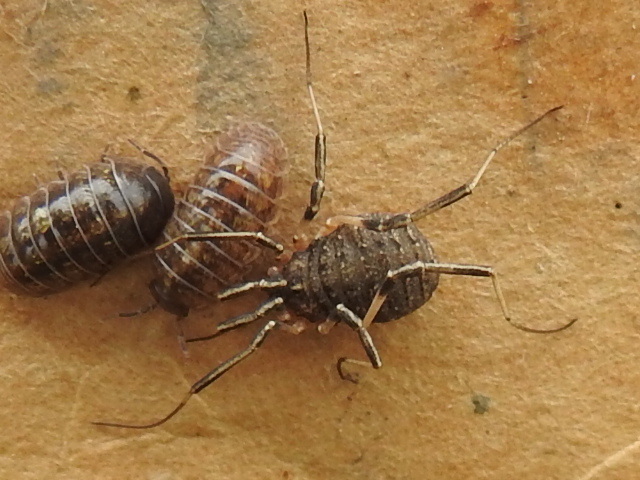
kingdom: Animalia
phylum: Arthropoda
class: Arachnida
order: Opiliones
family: Sclerosomatidae
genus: Eumesosoma
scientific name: Eumesosoma roeweri
